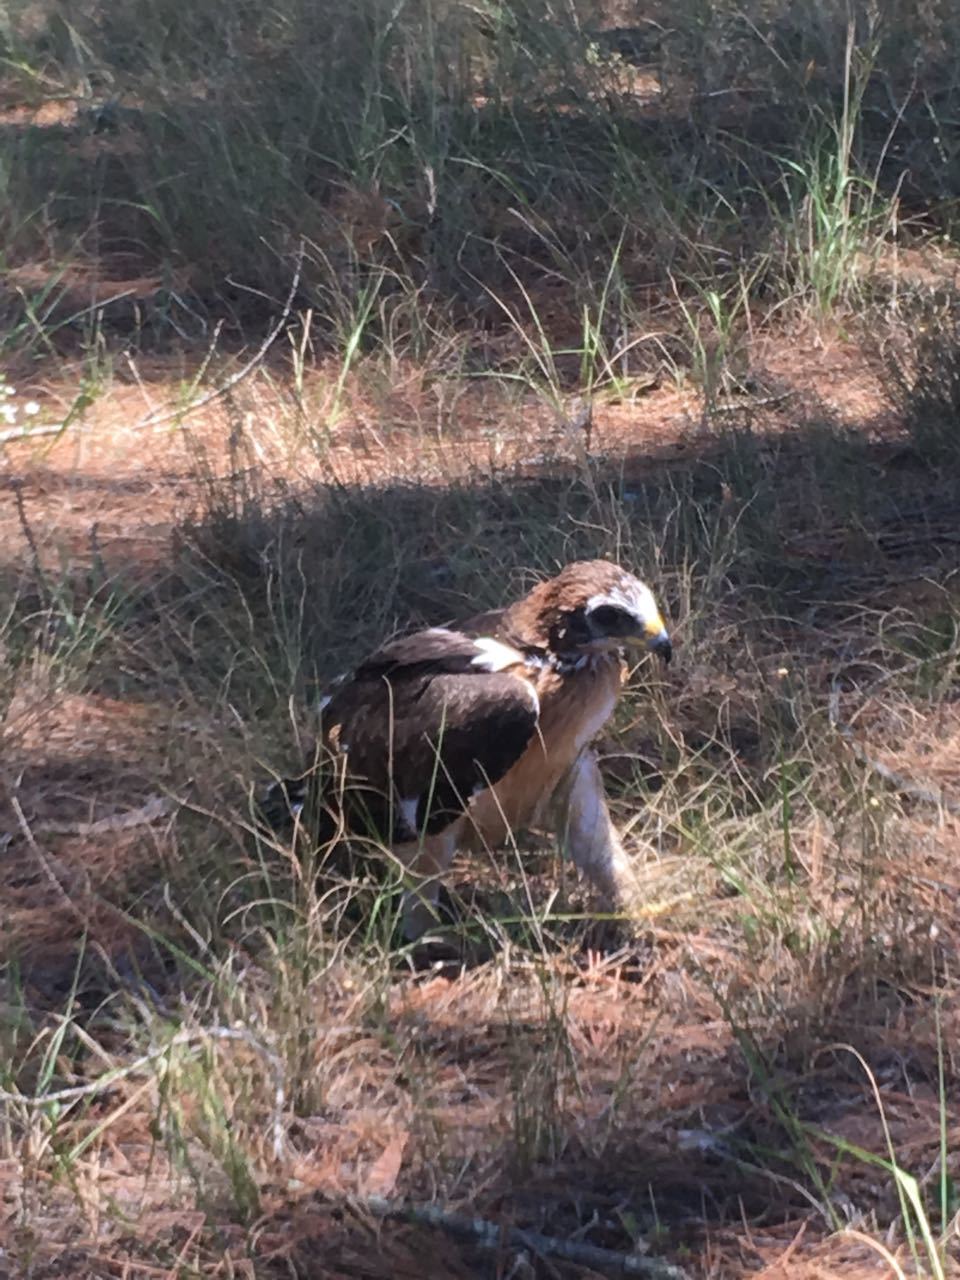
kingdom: Animalia
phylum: Chordata
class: Aves
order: Accipitriformes
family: Accipitridae
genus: Hieraaetus
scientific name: Hieraaetus pennatus
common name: Booted eagle
